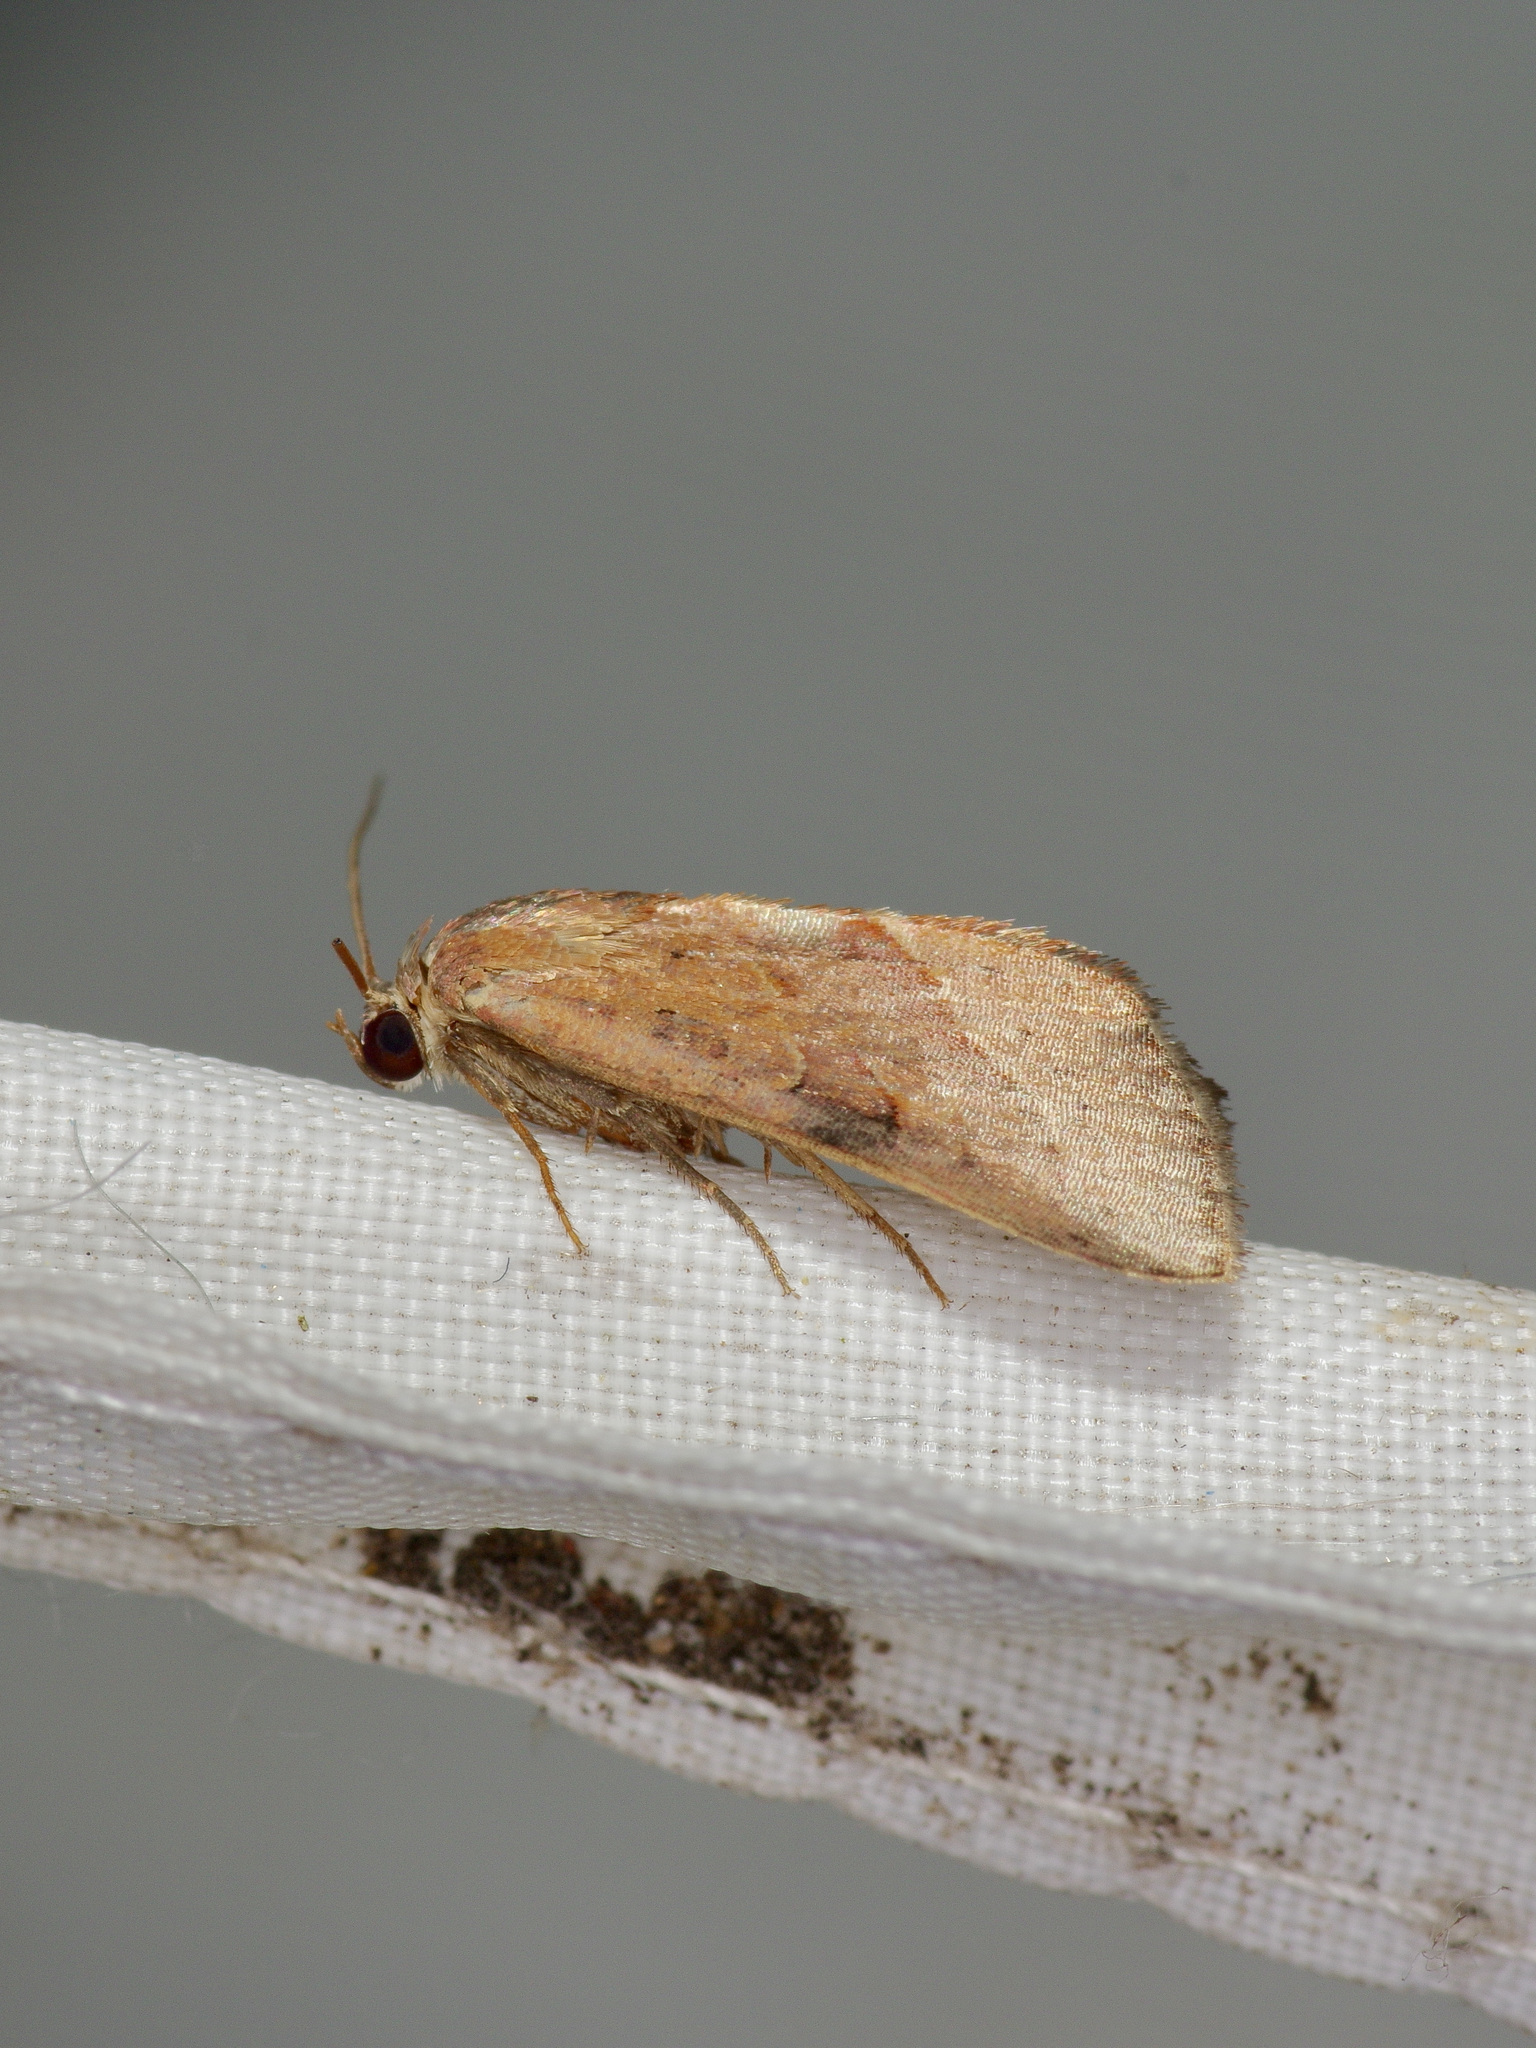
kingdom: Animalia
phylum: Arthropoda
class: Insecta
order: Lepidoptera
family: Noctuidae
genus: Galgula
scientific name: Galgula partita
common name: Wedgeling
